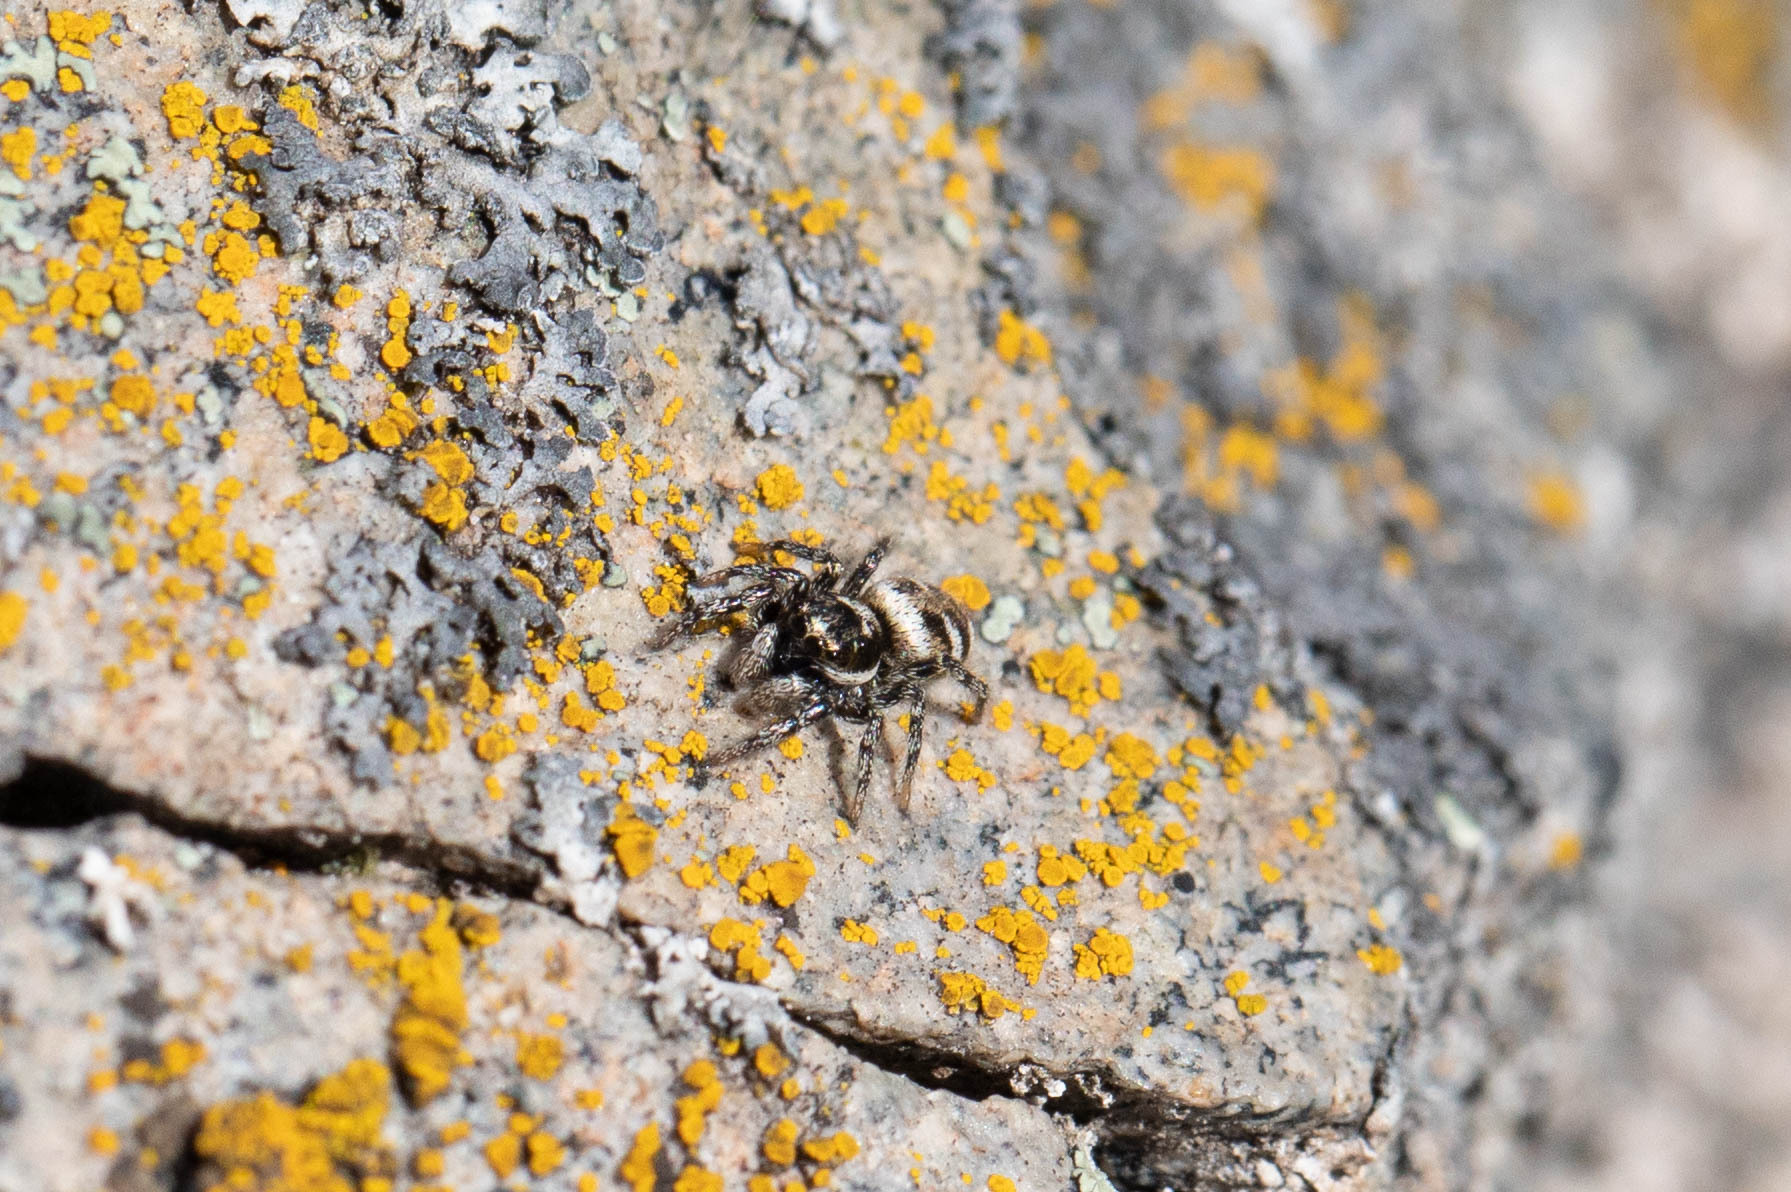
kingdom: Animalia
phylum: Arthropoda
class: Arachnida
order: Araneae
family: Salticidae
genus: Salticus
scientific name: Salticus scenicus
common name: Zebra jumper
